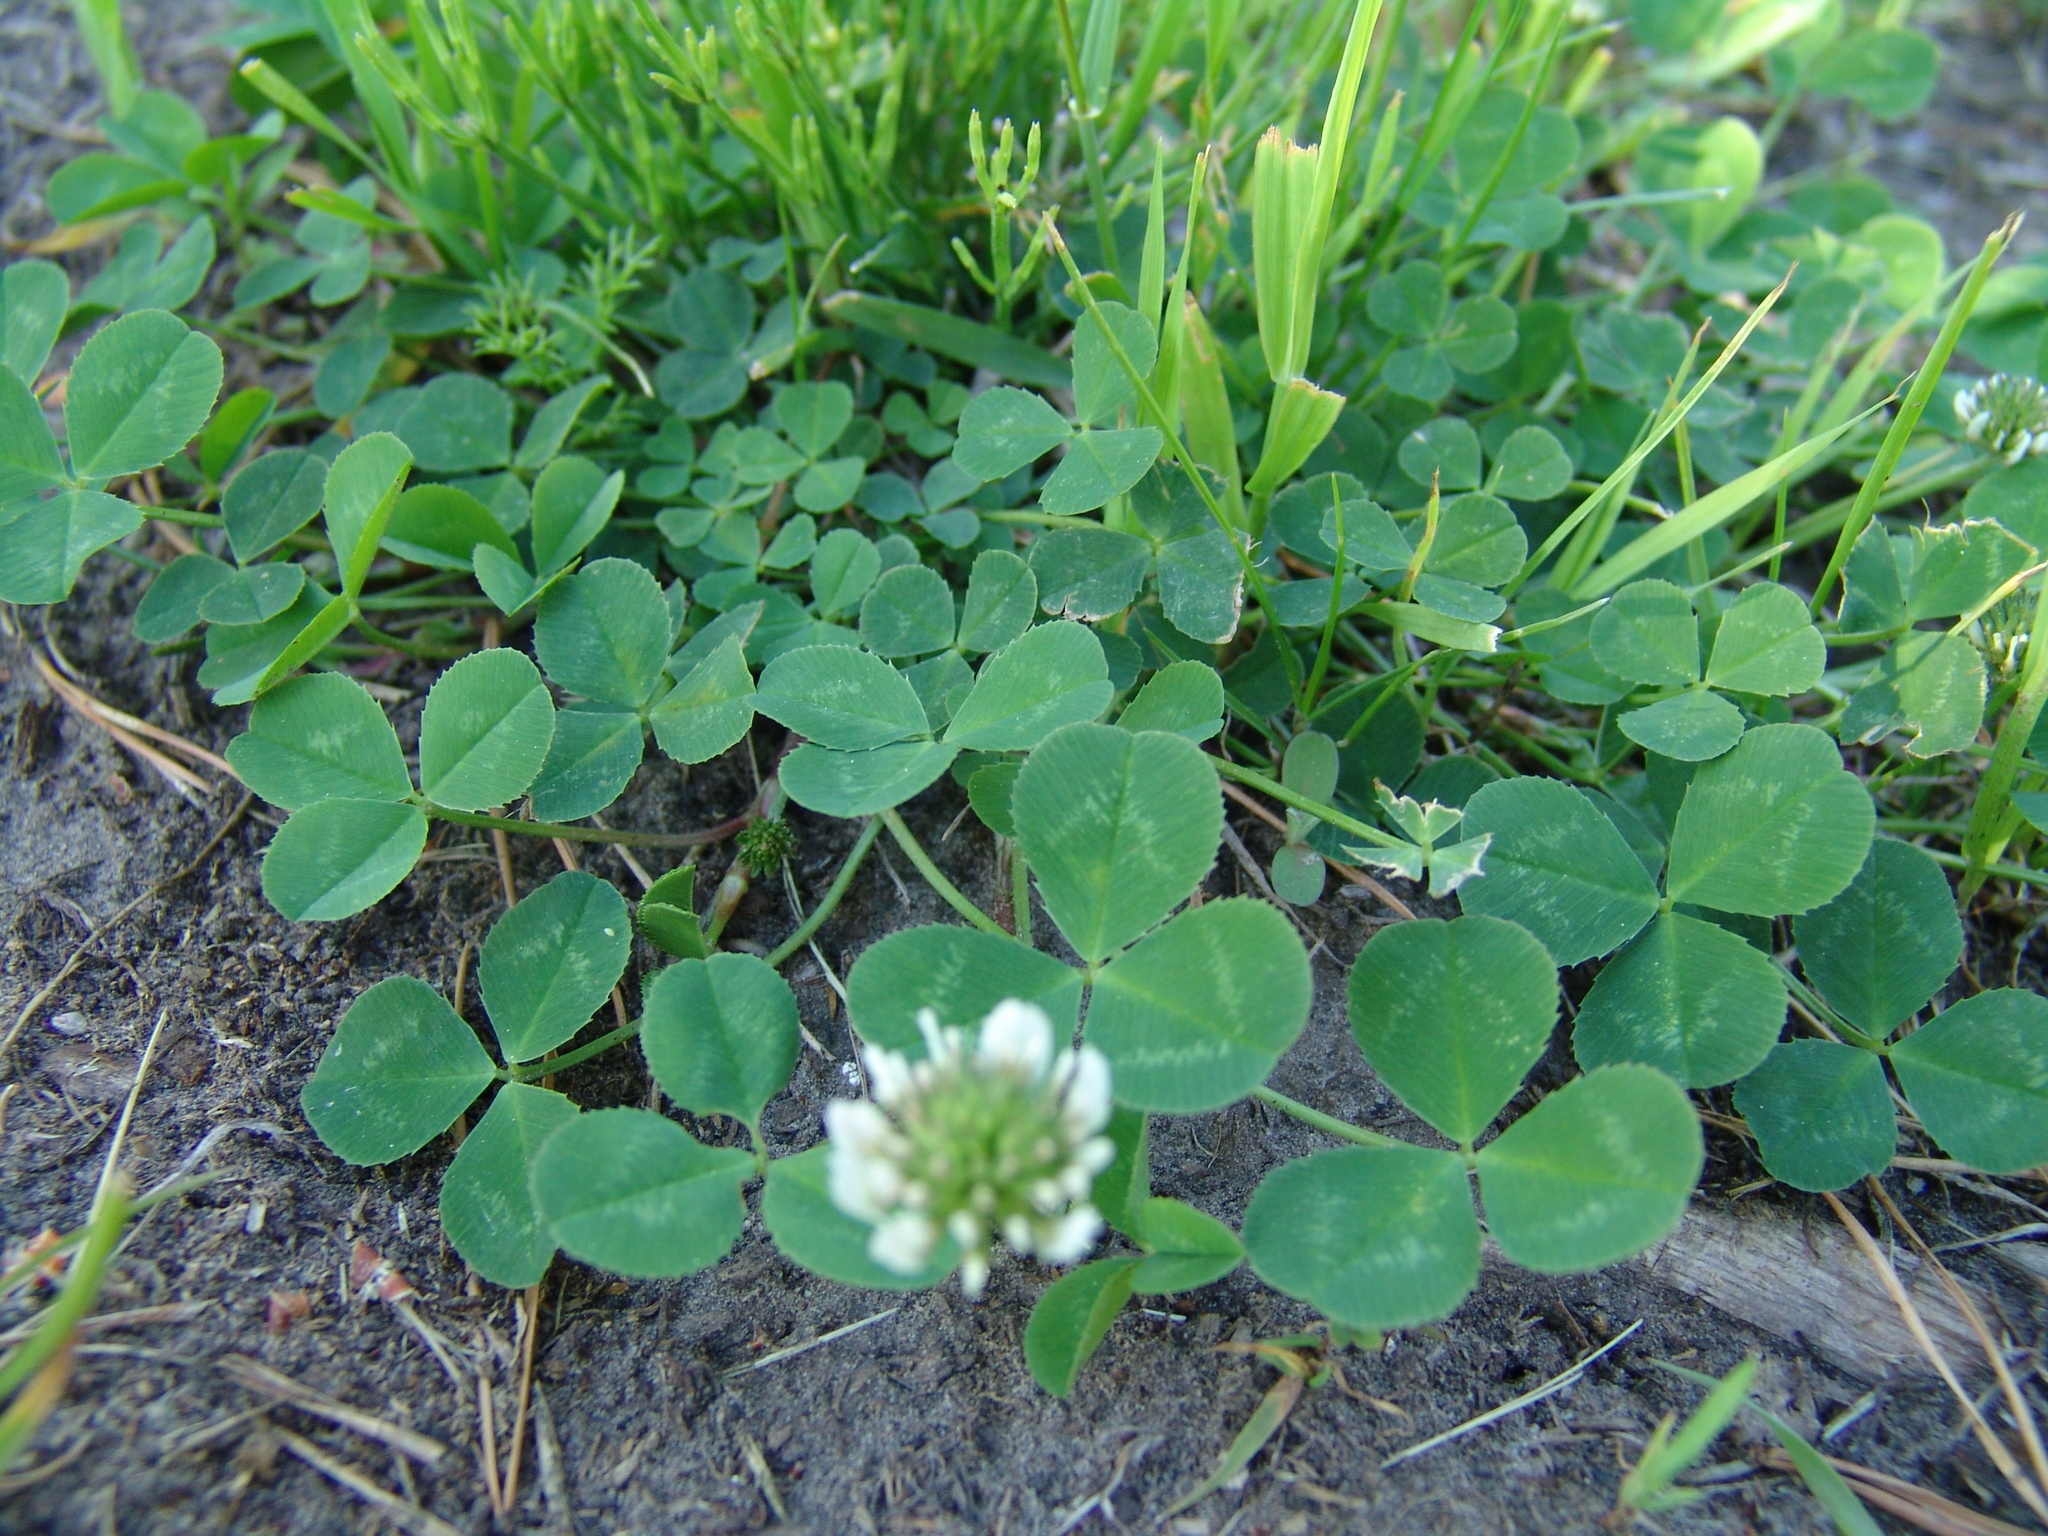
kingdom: Plantae
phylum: Tracheophyta
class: Magnoliopsida
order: Fabales
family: Fabaceae
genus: Trifolium
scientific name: Trifolium repens
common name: White clover
